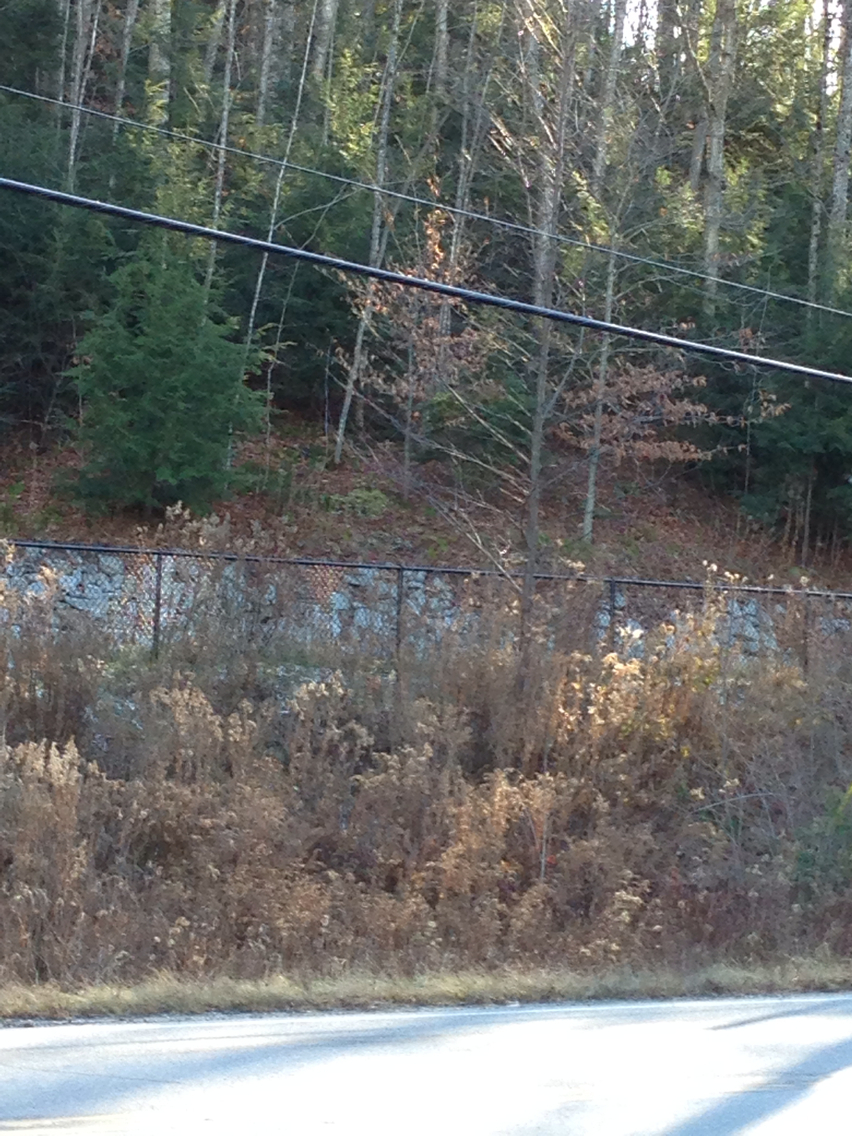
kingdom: Plantae
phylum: Tracheophyta
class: Magnoliopsida
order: Fagales
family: Fagaceae
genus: Fagus
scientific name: Fagus grandifolia
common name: American beech
